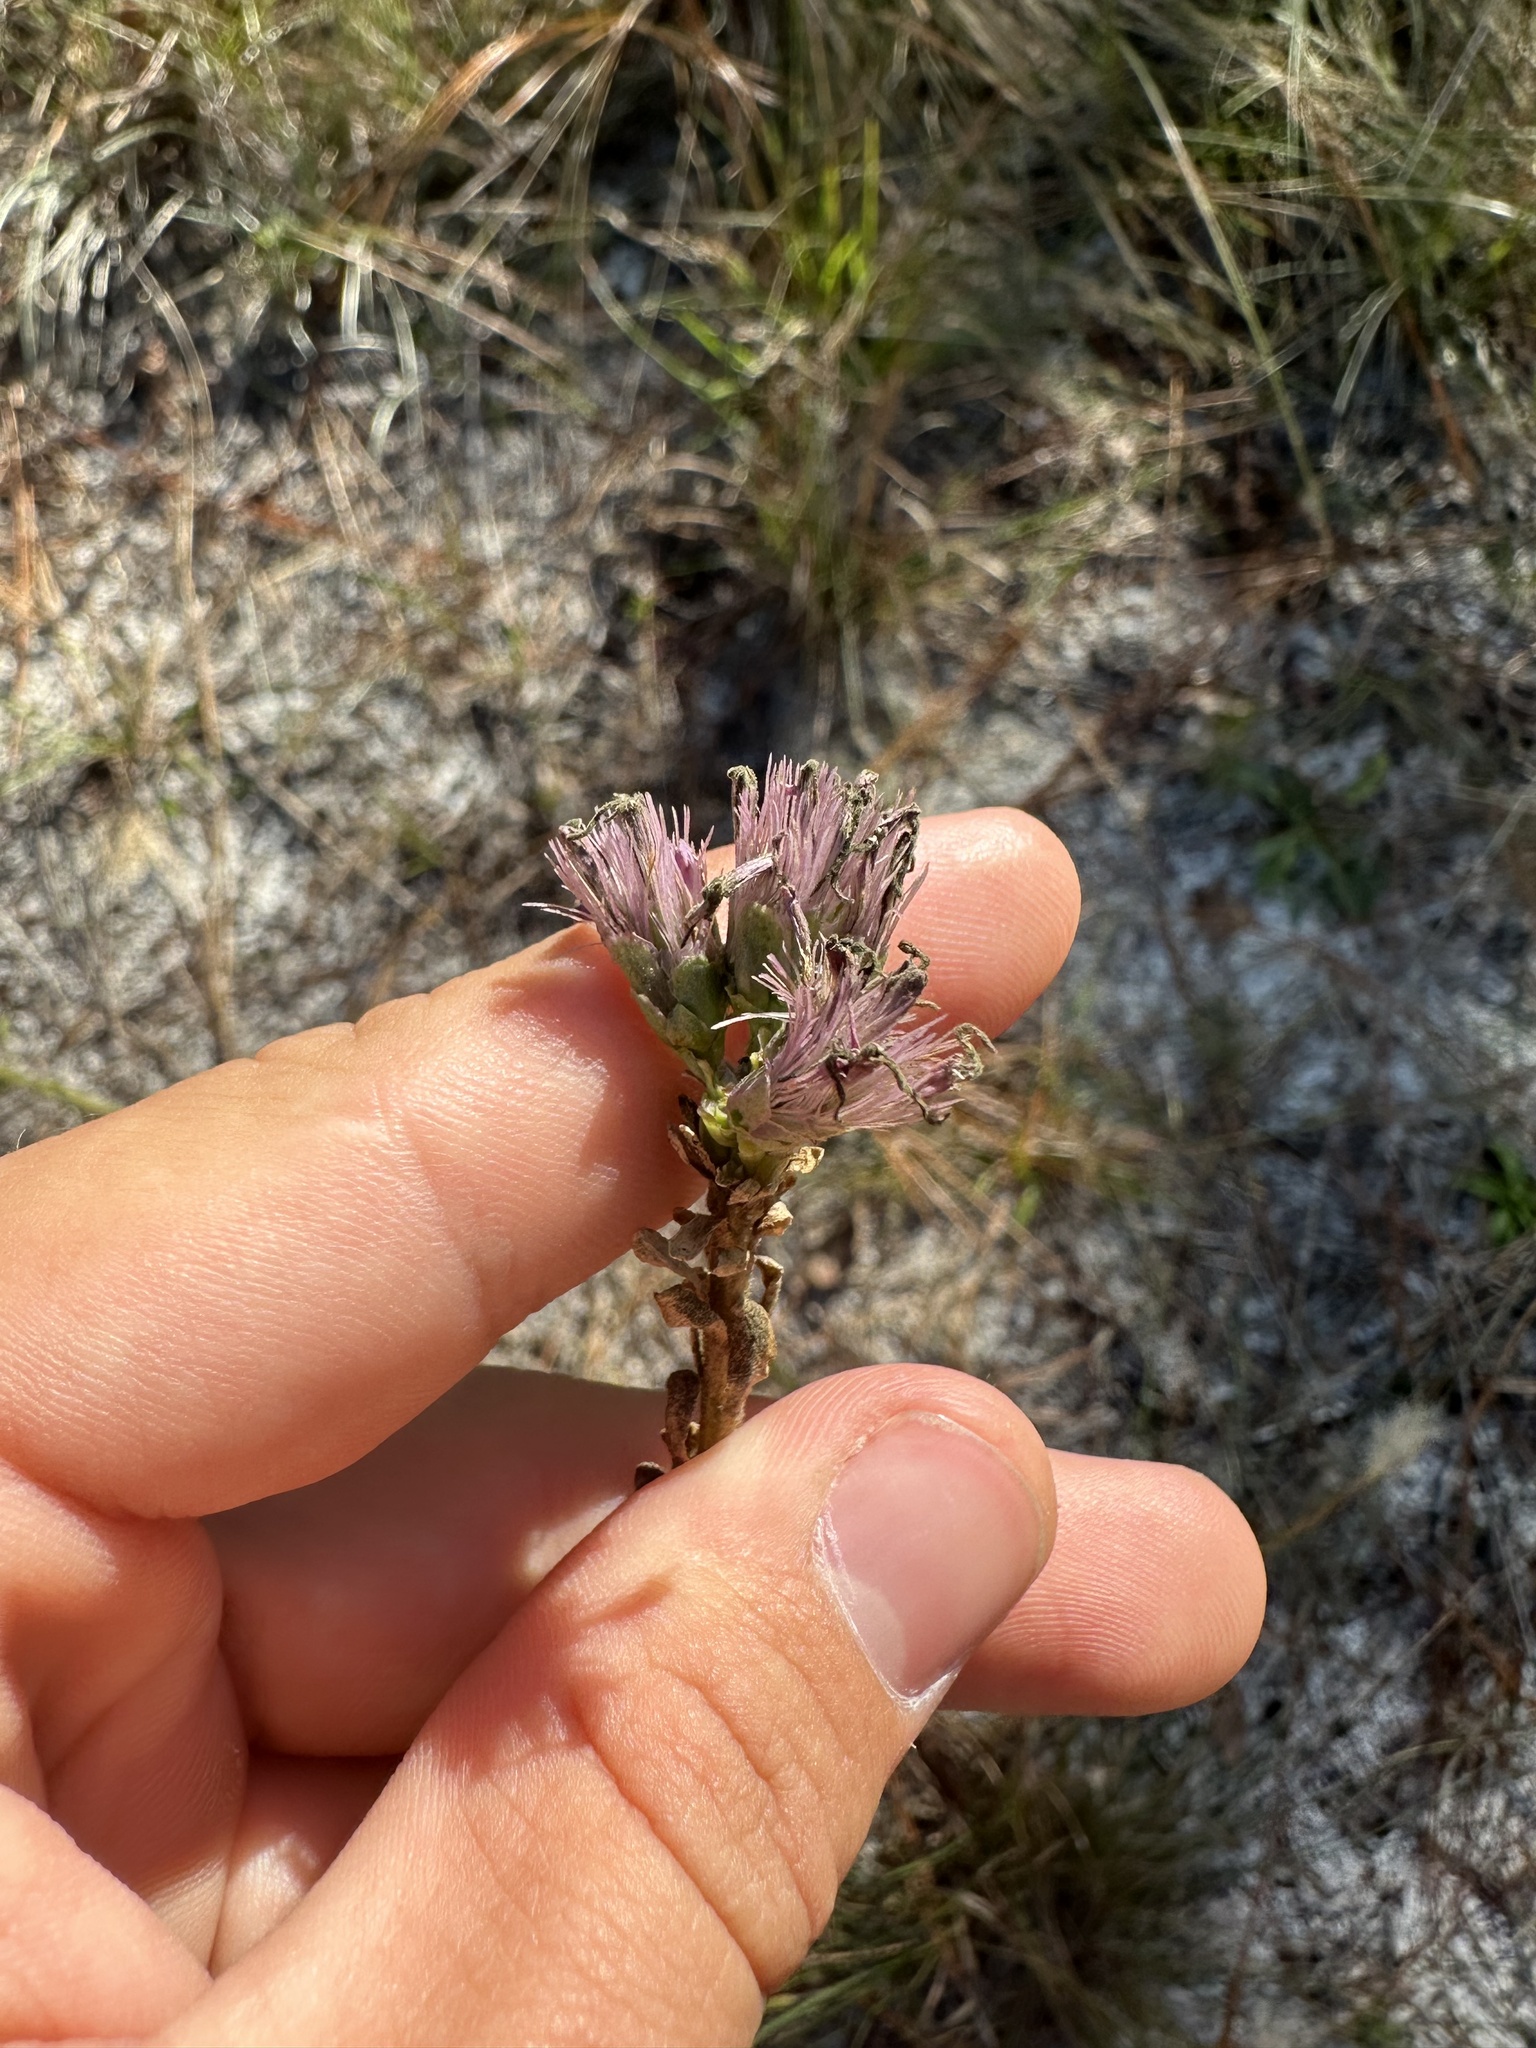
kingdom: Plantae
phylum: Tracheophyta
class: Magnoliopsida
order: Asterales
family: Asteraceae
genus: Carphephorus
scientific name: Carphephorus corymbosus
